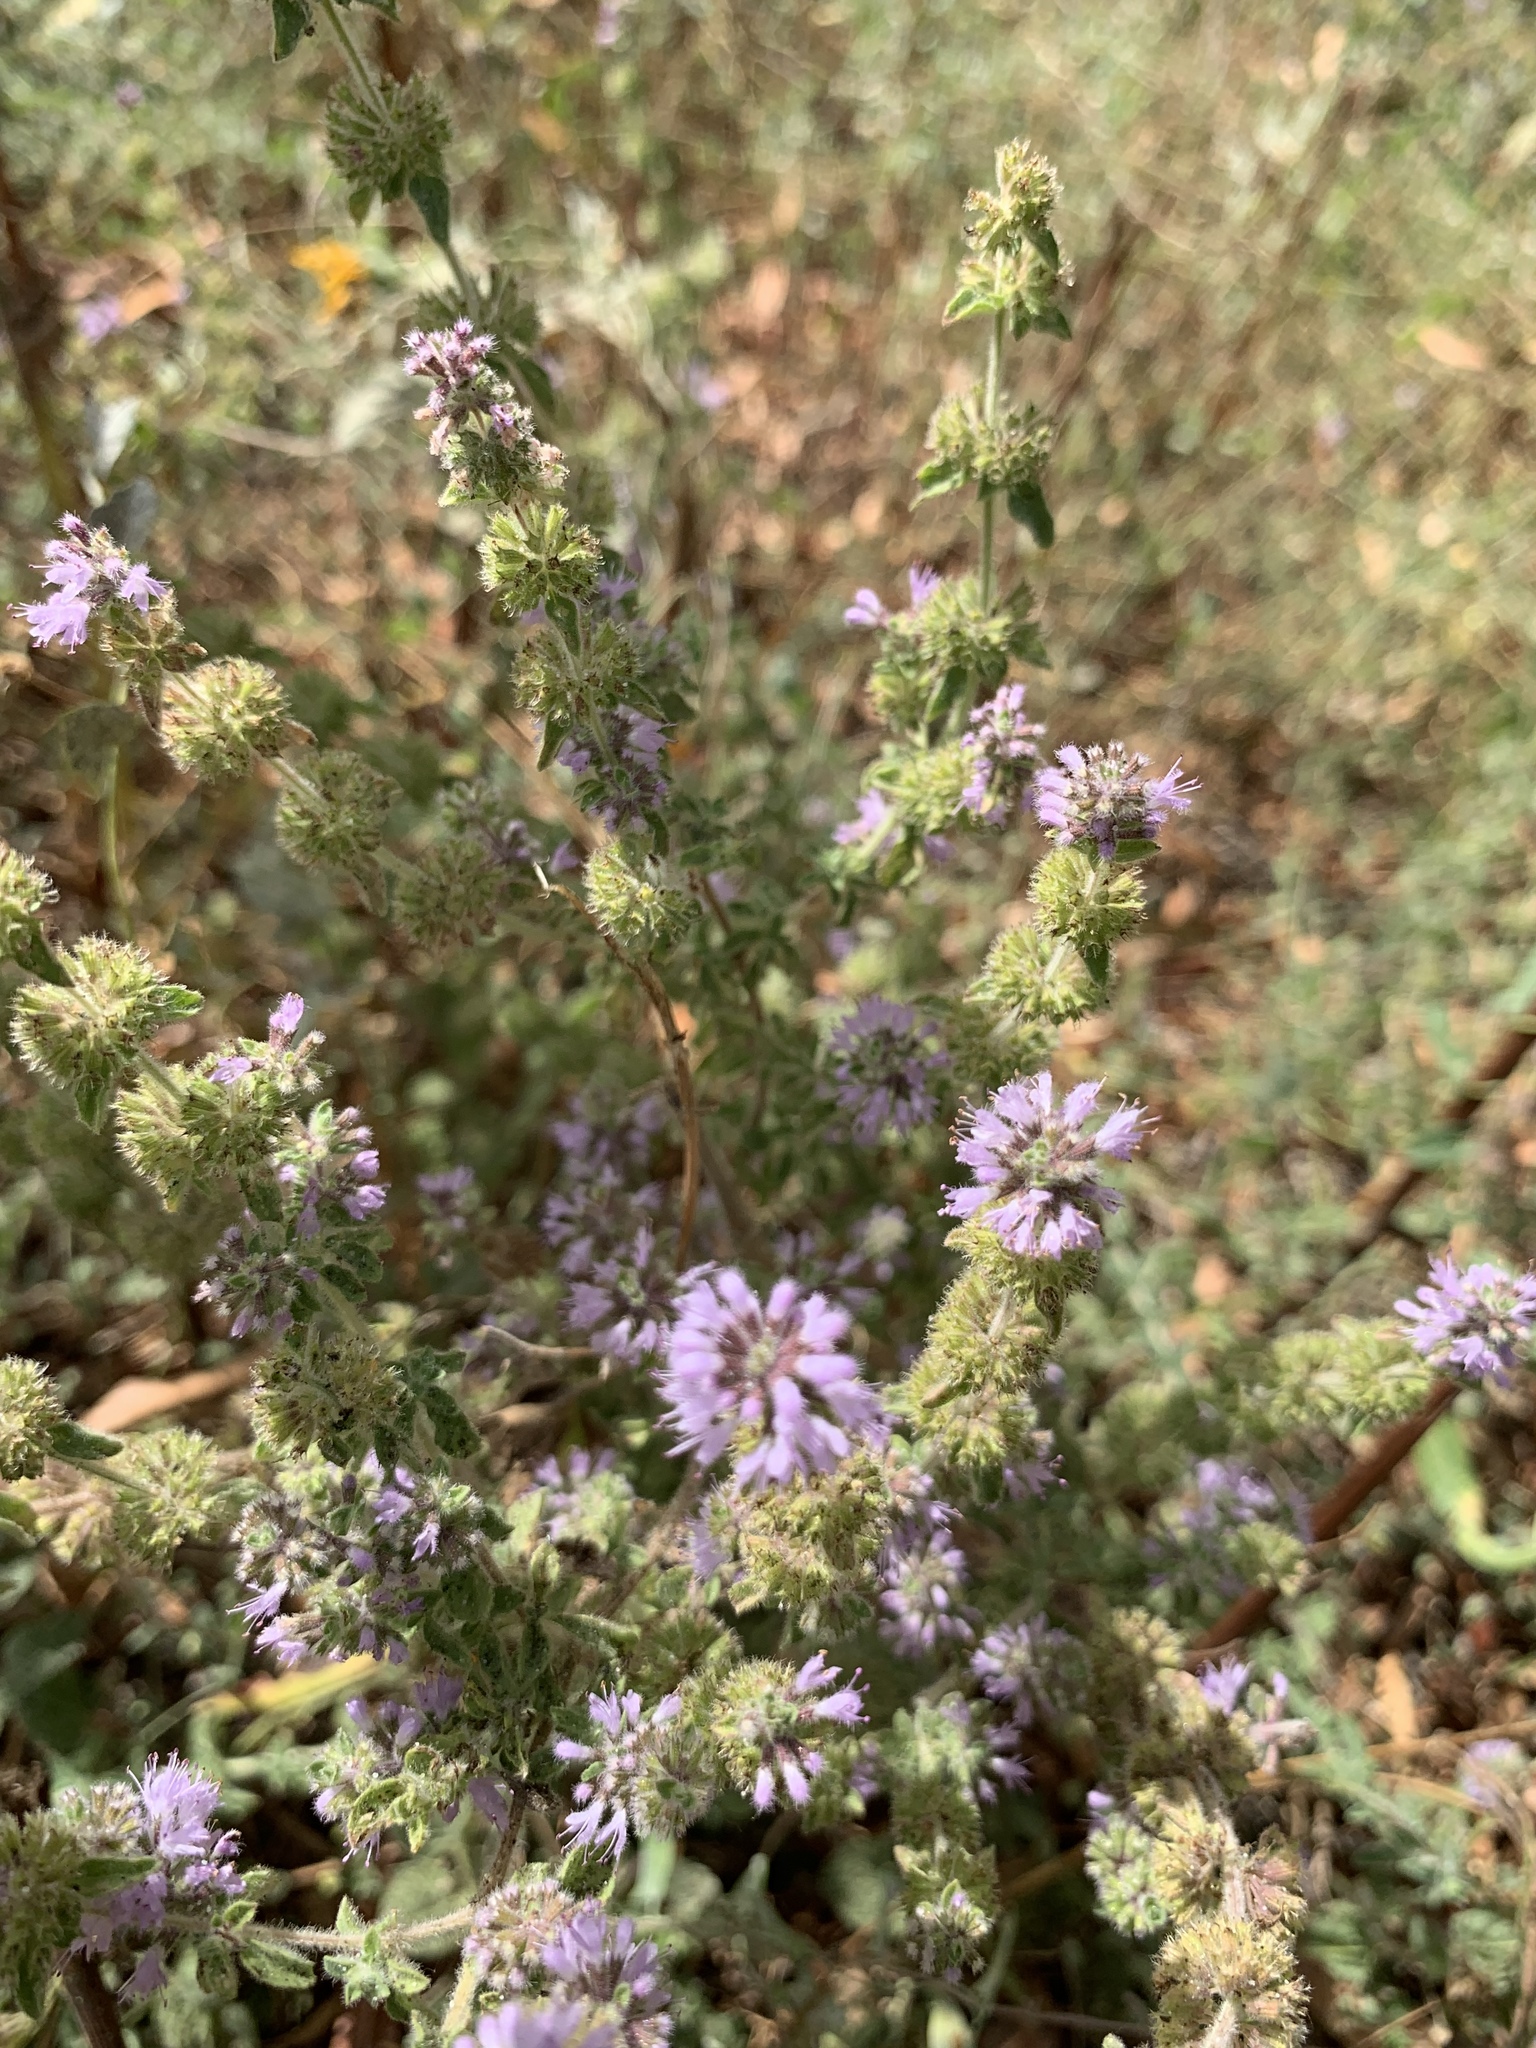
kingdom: Plantae
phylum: Tracheophyta
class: Magnoliopsida
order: Lamiales
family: Lamiaceae
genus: Mentha
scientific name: Mentha pulegium
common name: Pennyroyal
